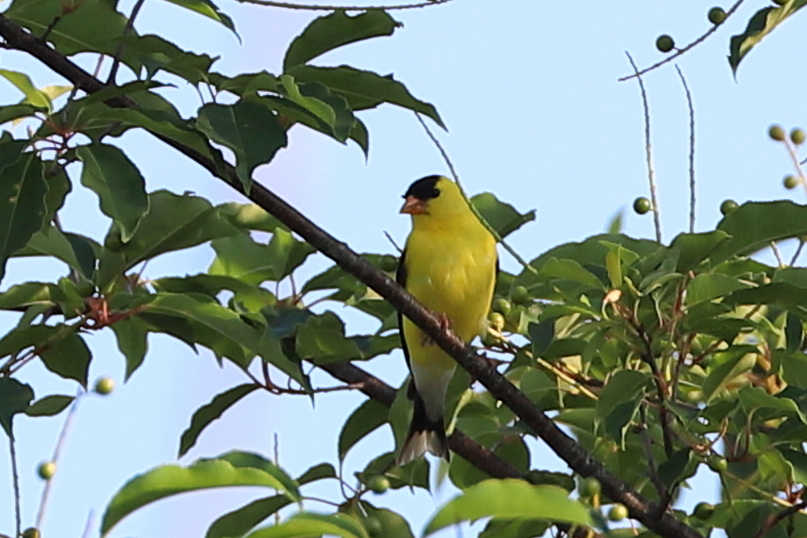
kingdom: Animalia
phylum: Chordata
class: Aves
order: Passeriformes
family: Fringillidae
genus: Spinus
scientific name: Spinus tristis
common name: American goldfinch
